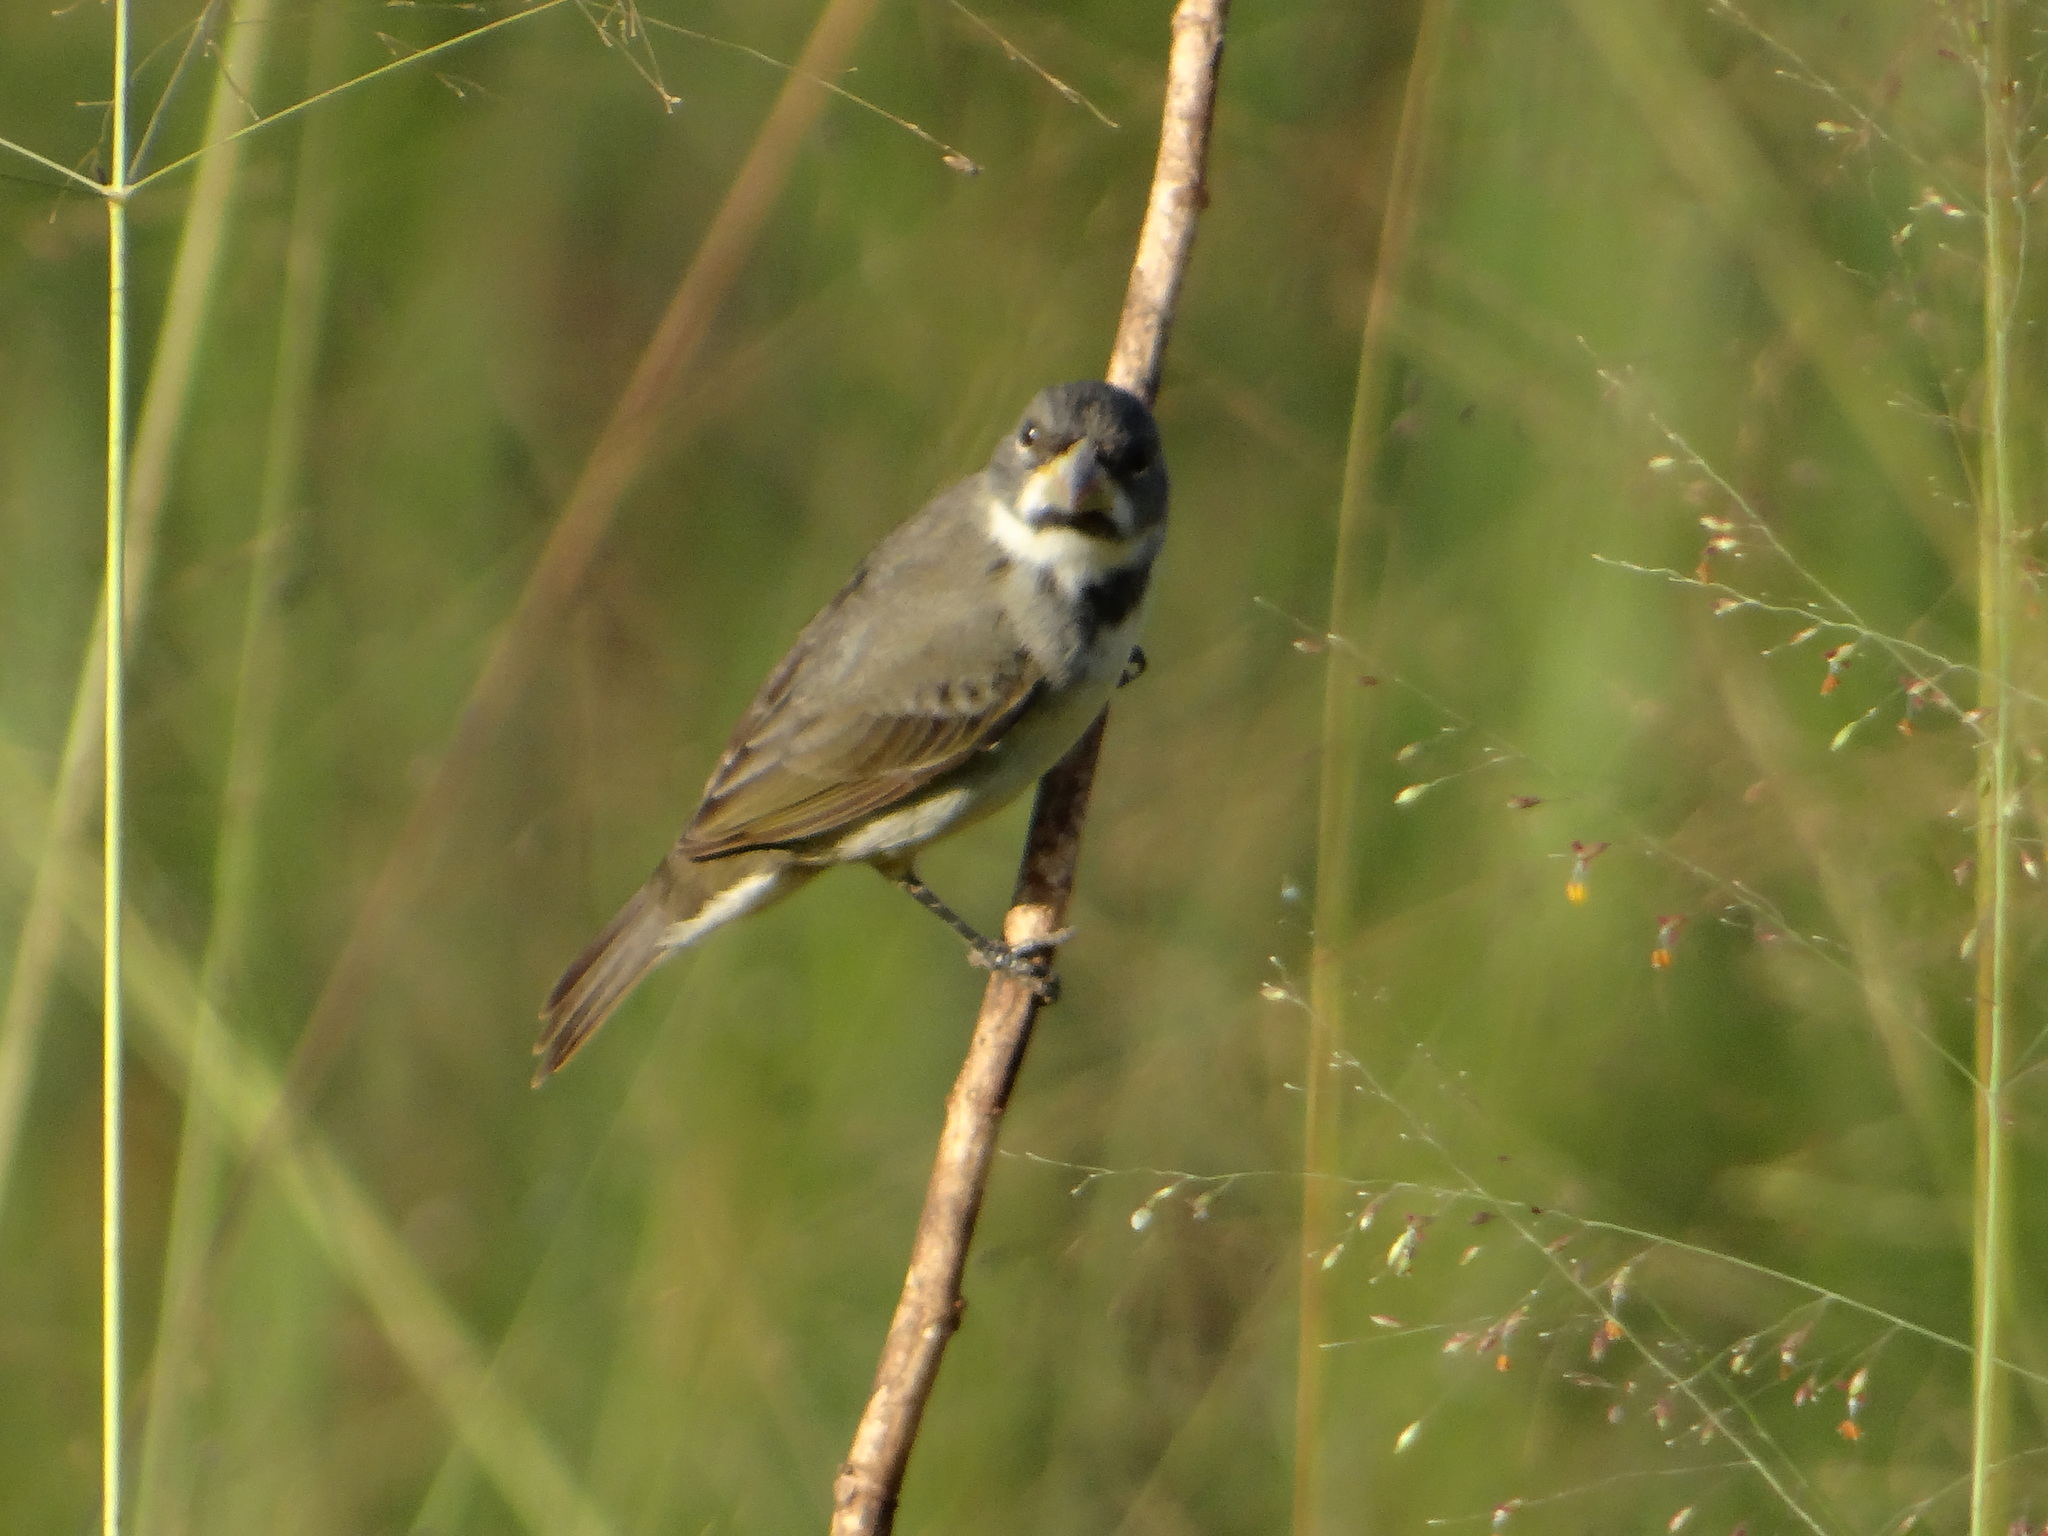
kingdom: Animalia
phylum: Chordata
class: Aves
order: Passeriformes
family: Thraupidae
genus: Sporophila
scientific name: Sporophila caerulescens
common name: Double-collared seedeater
